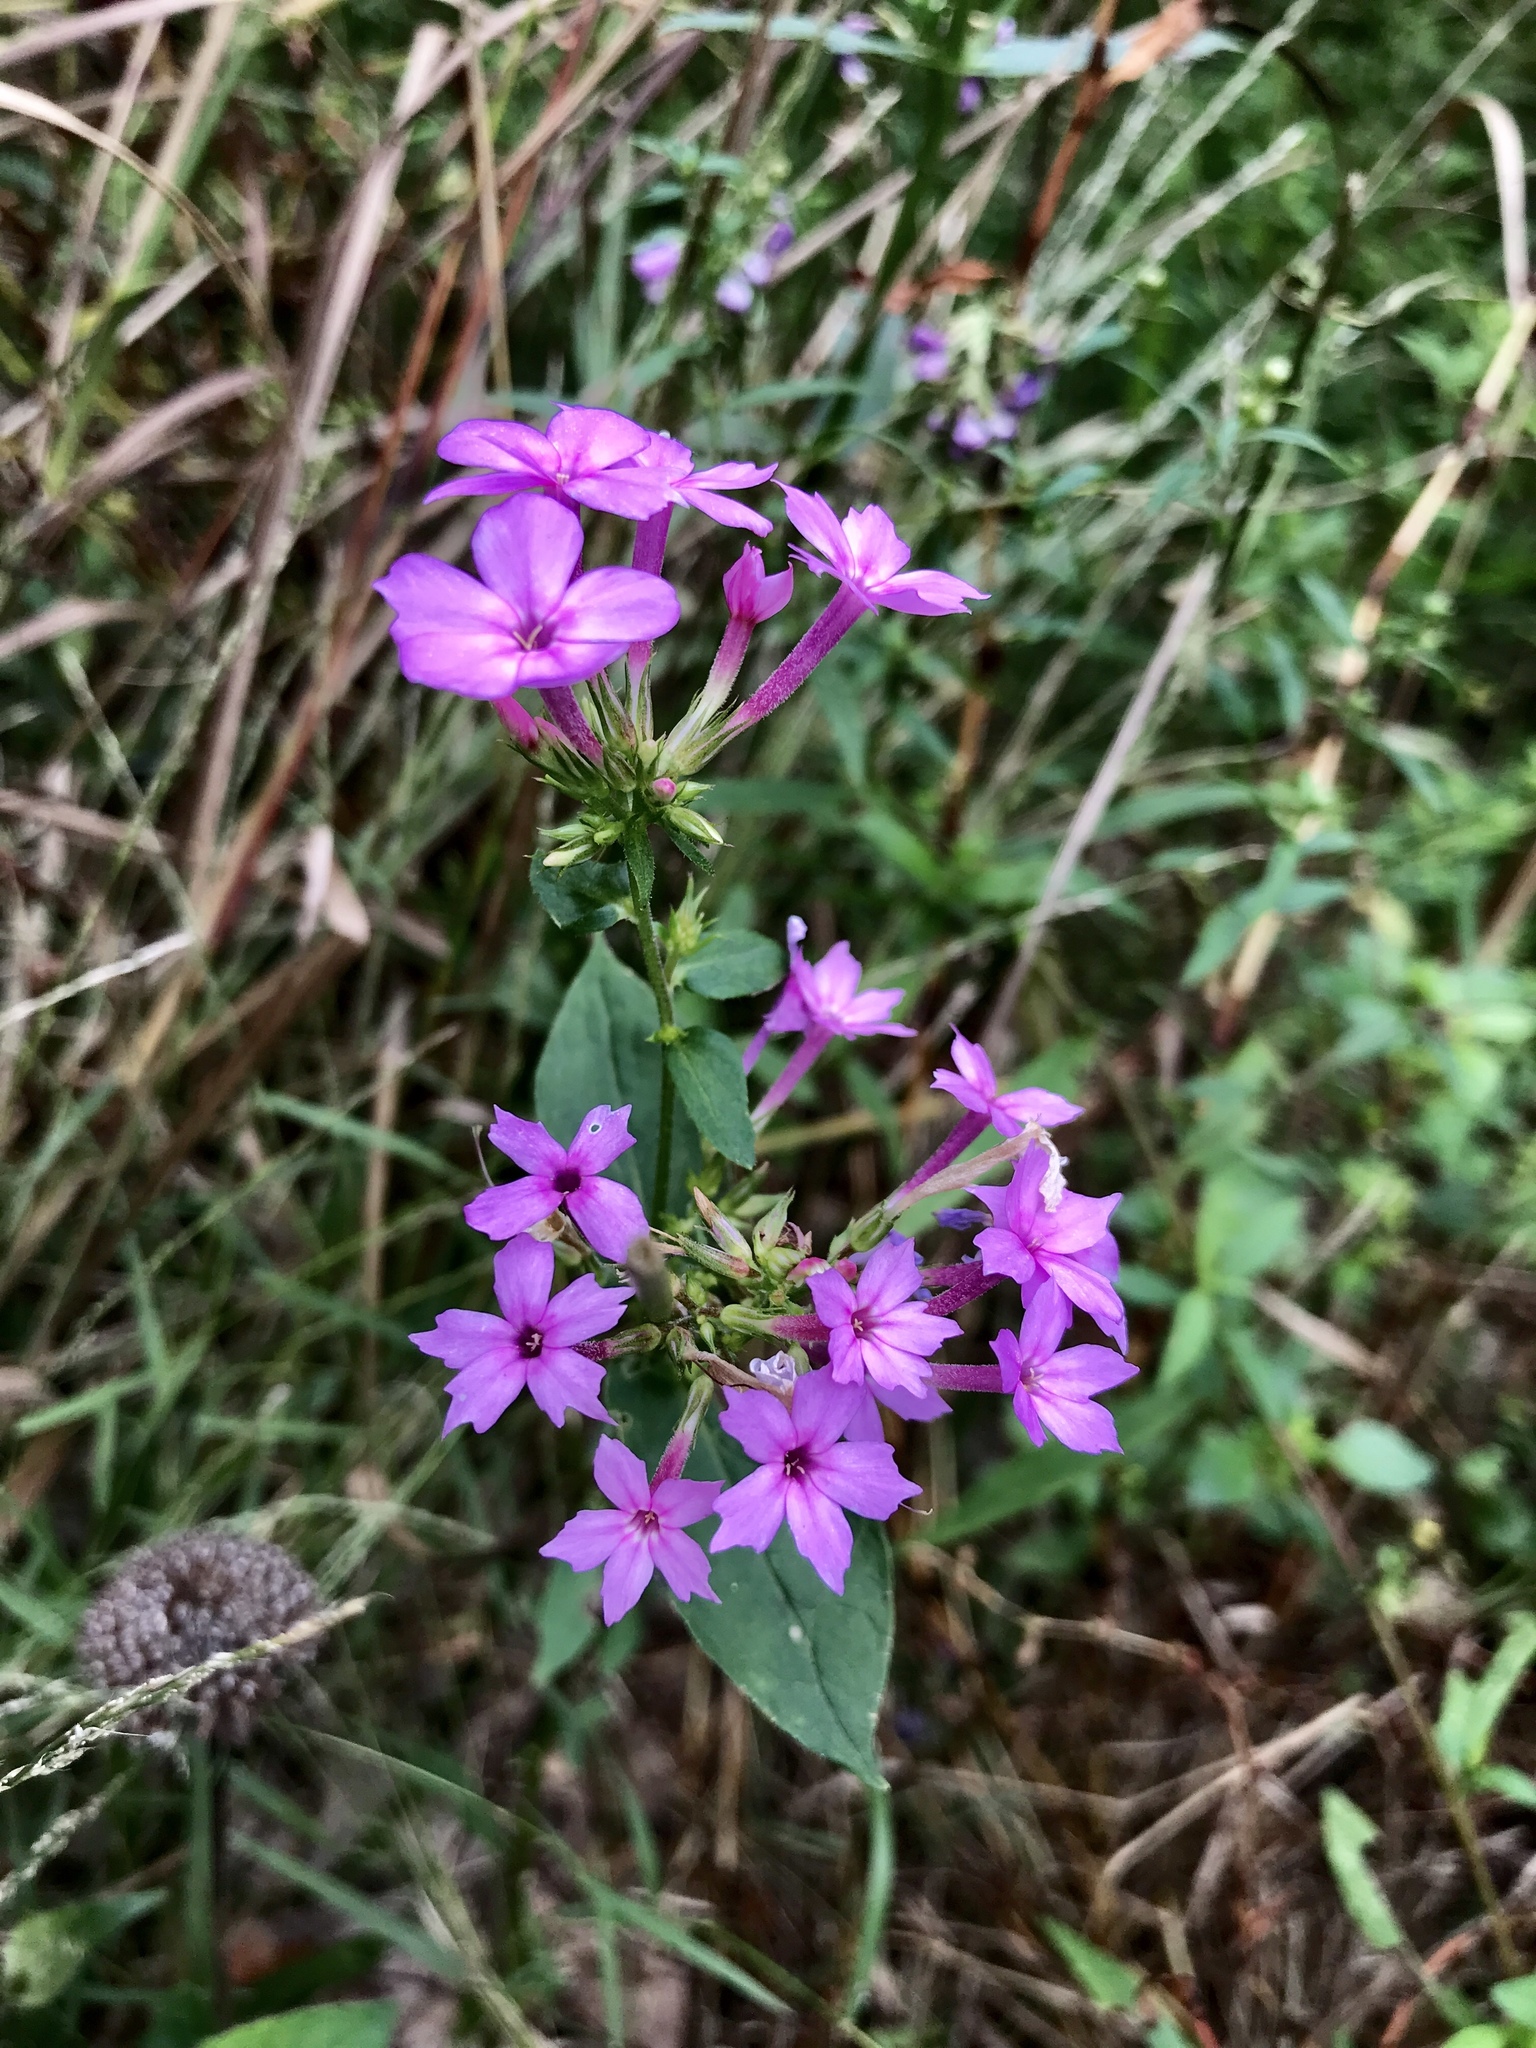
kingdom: Plantae
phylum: Tracheophyta
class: Magnoliopsida
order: Ericales
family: Polemoniaceae
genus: Phlox
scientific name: Phlox paniculata
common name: Fall phlox
